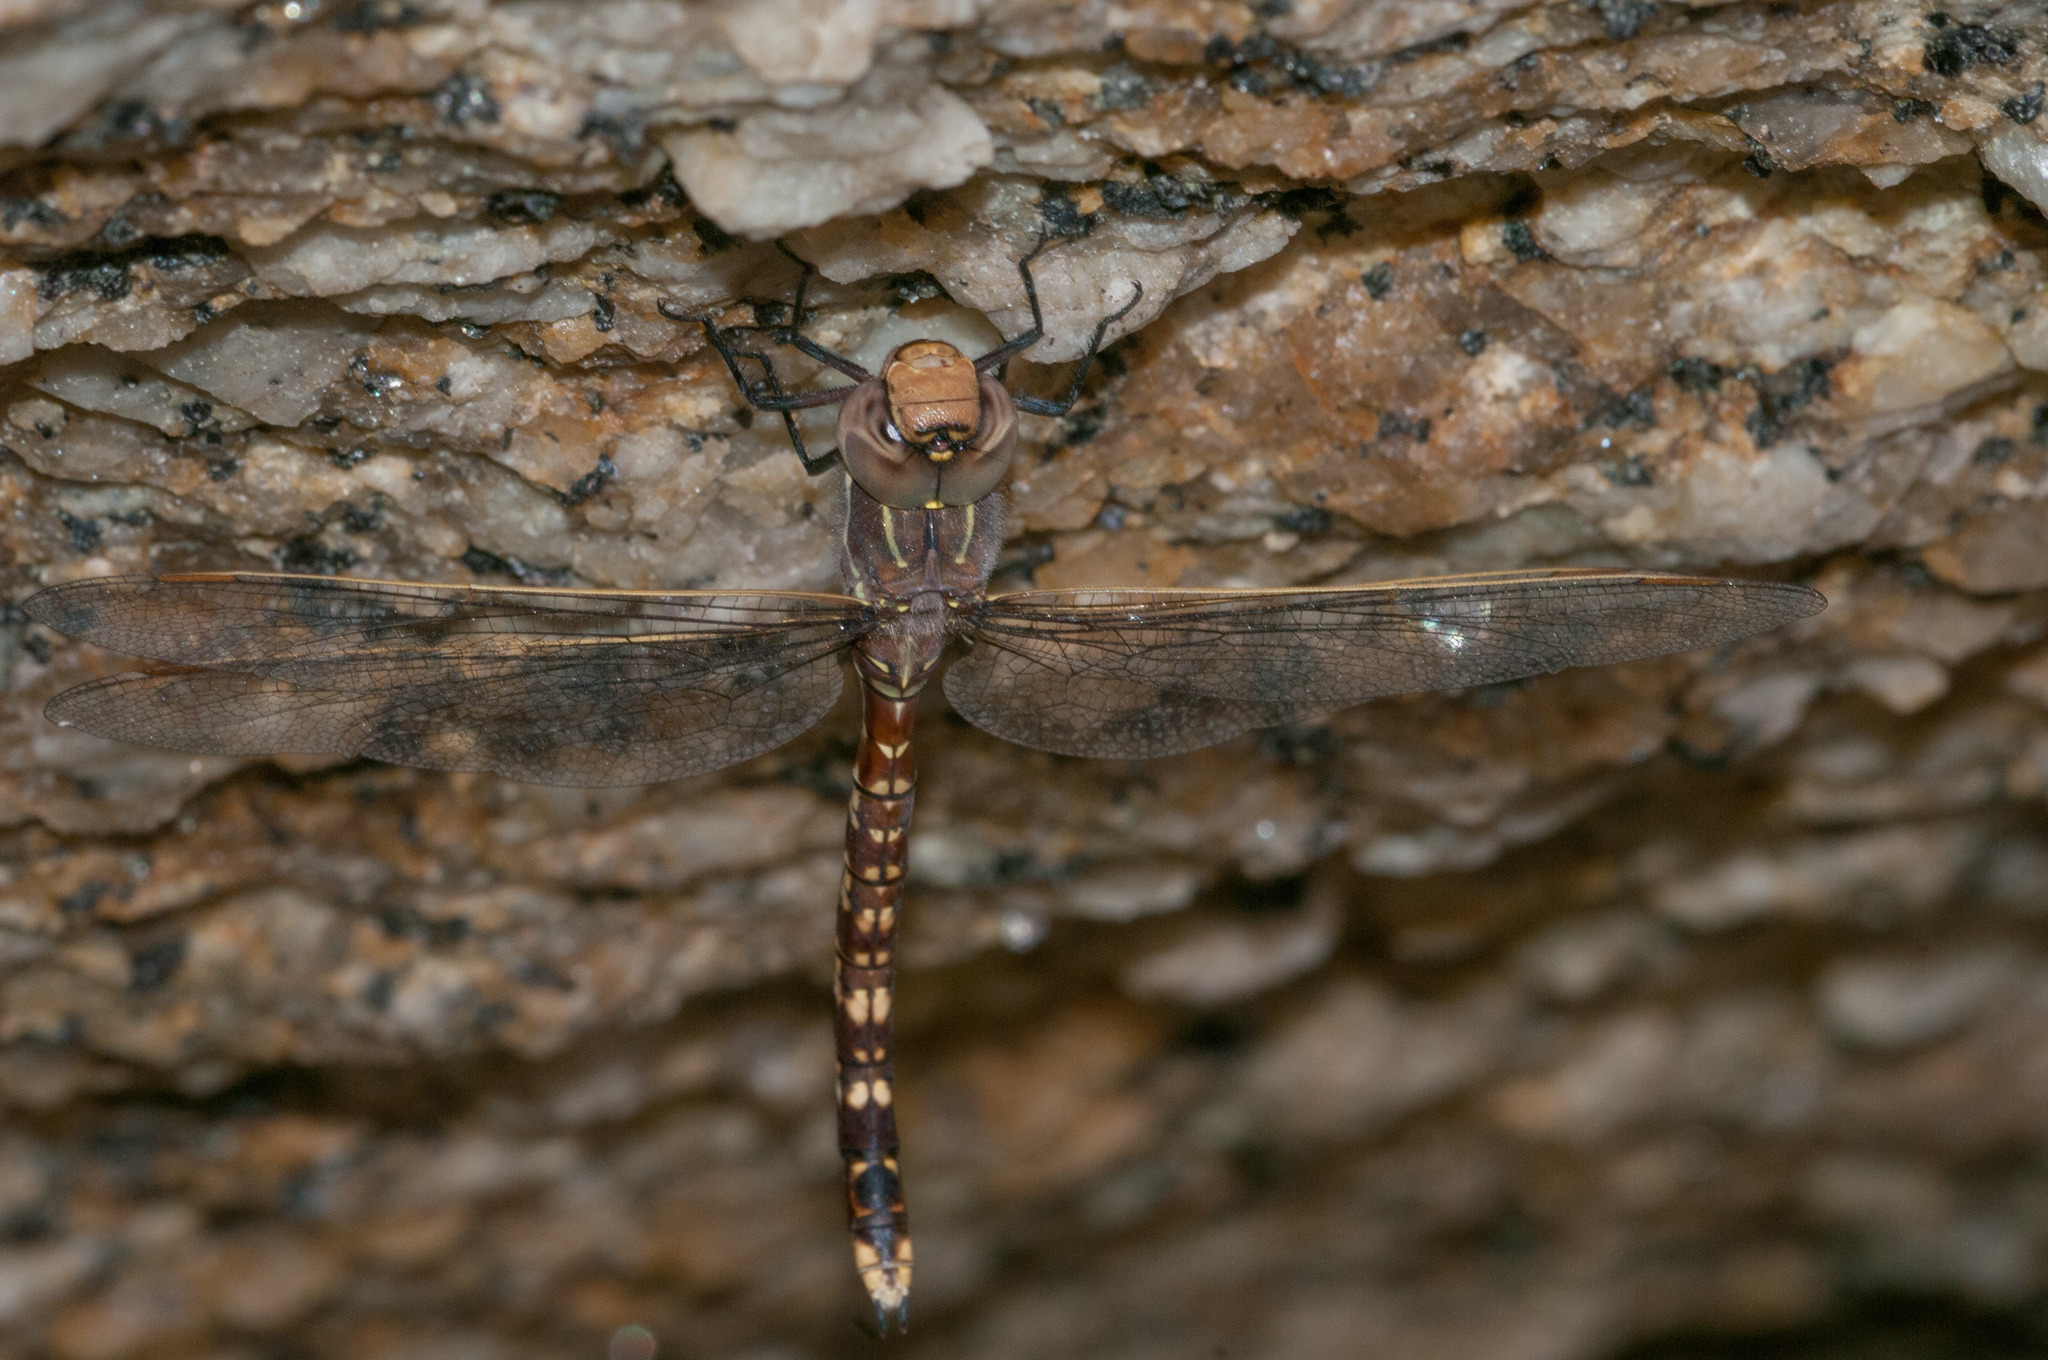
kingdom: Animalia
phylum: Arthropoda
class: Insecta
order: Odonata
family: Aeshnidae
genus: Aeshna
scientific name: Aeshna brevistyla
